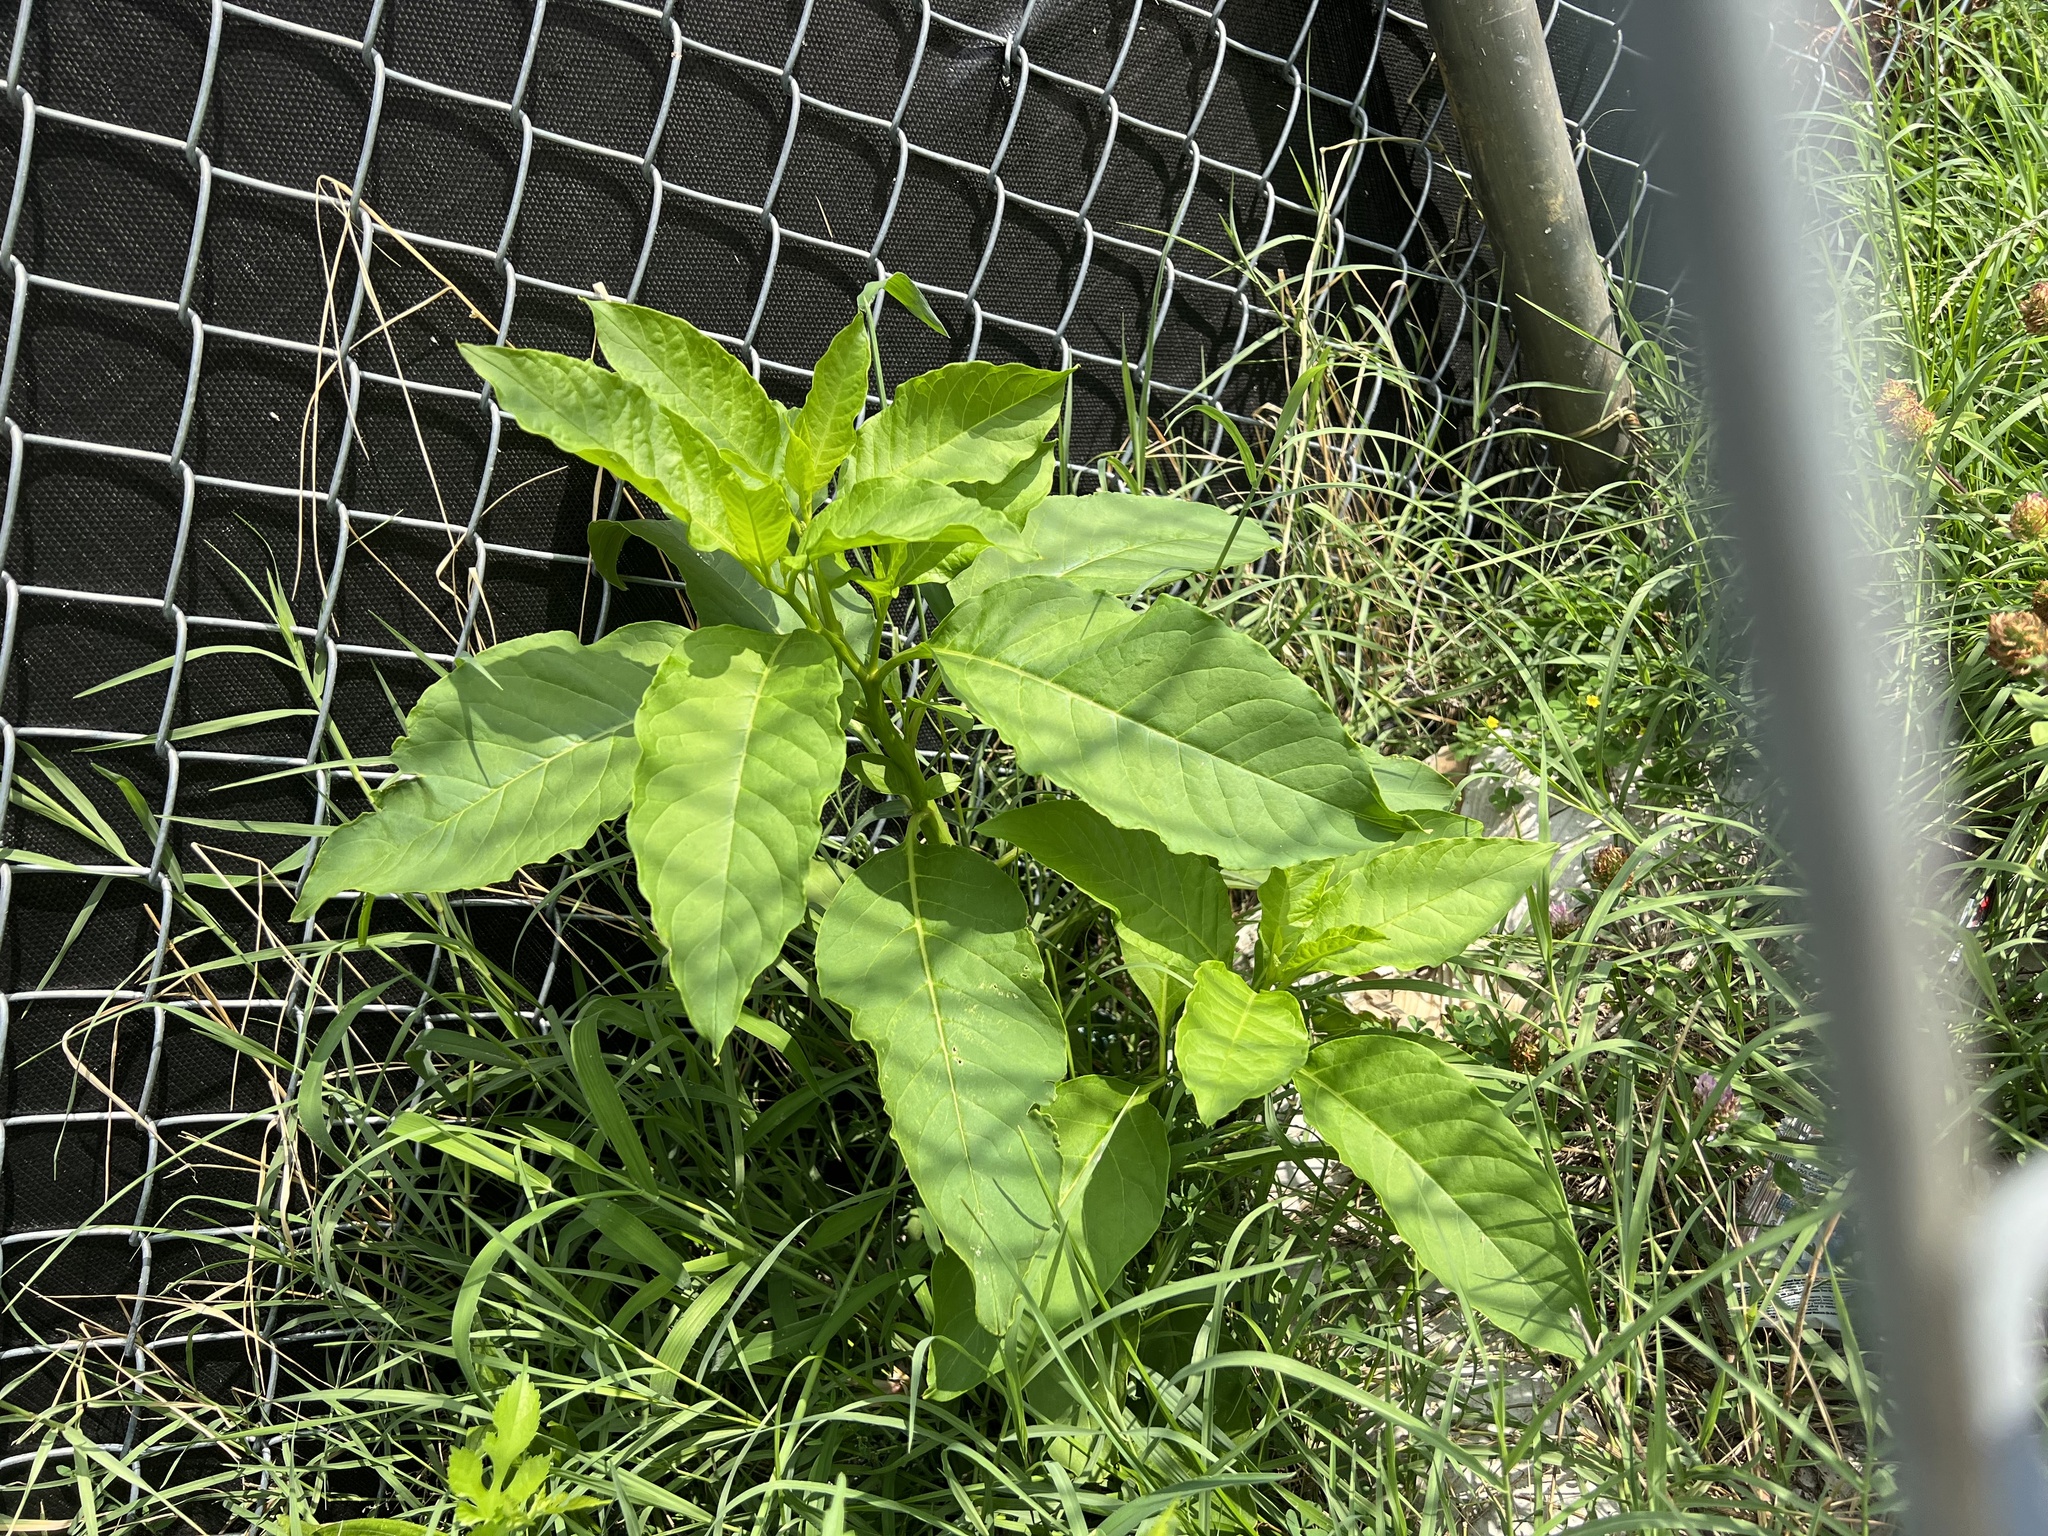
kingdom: Plantae
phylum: Tracheophyta
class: Magnoliopsida
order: Caryophyllales
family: Phytolaccaceae
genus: Phytolacca
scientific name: Phytolacca americana
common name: American pokeweed
